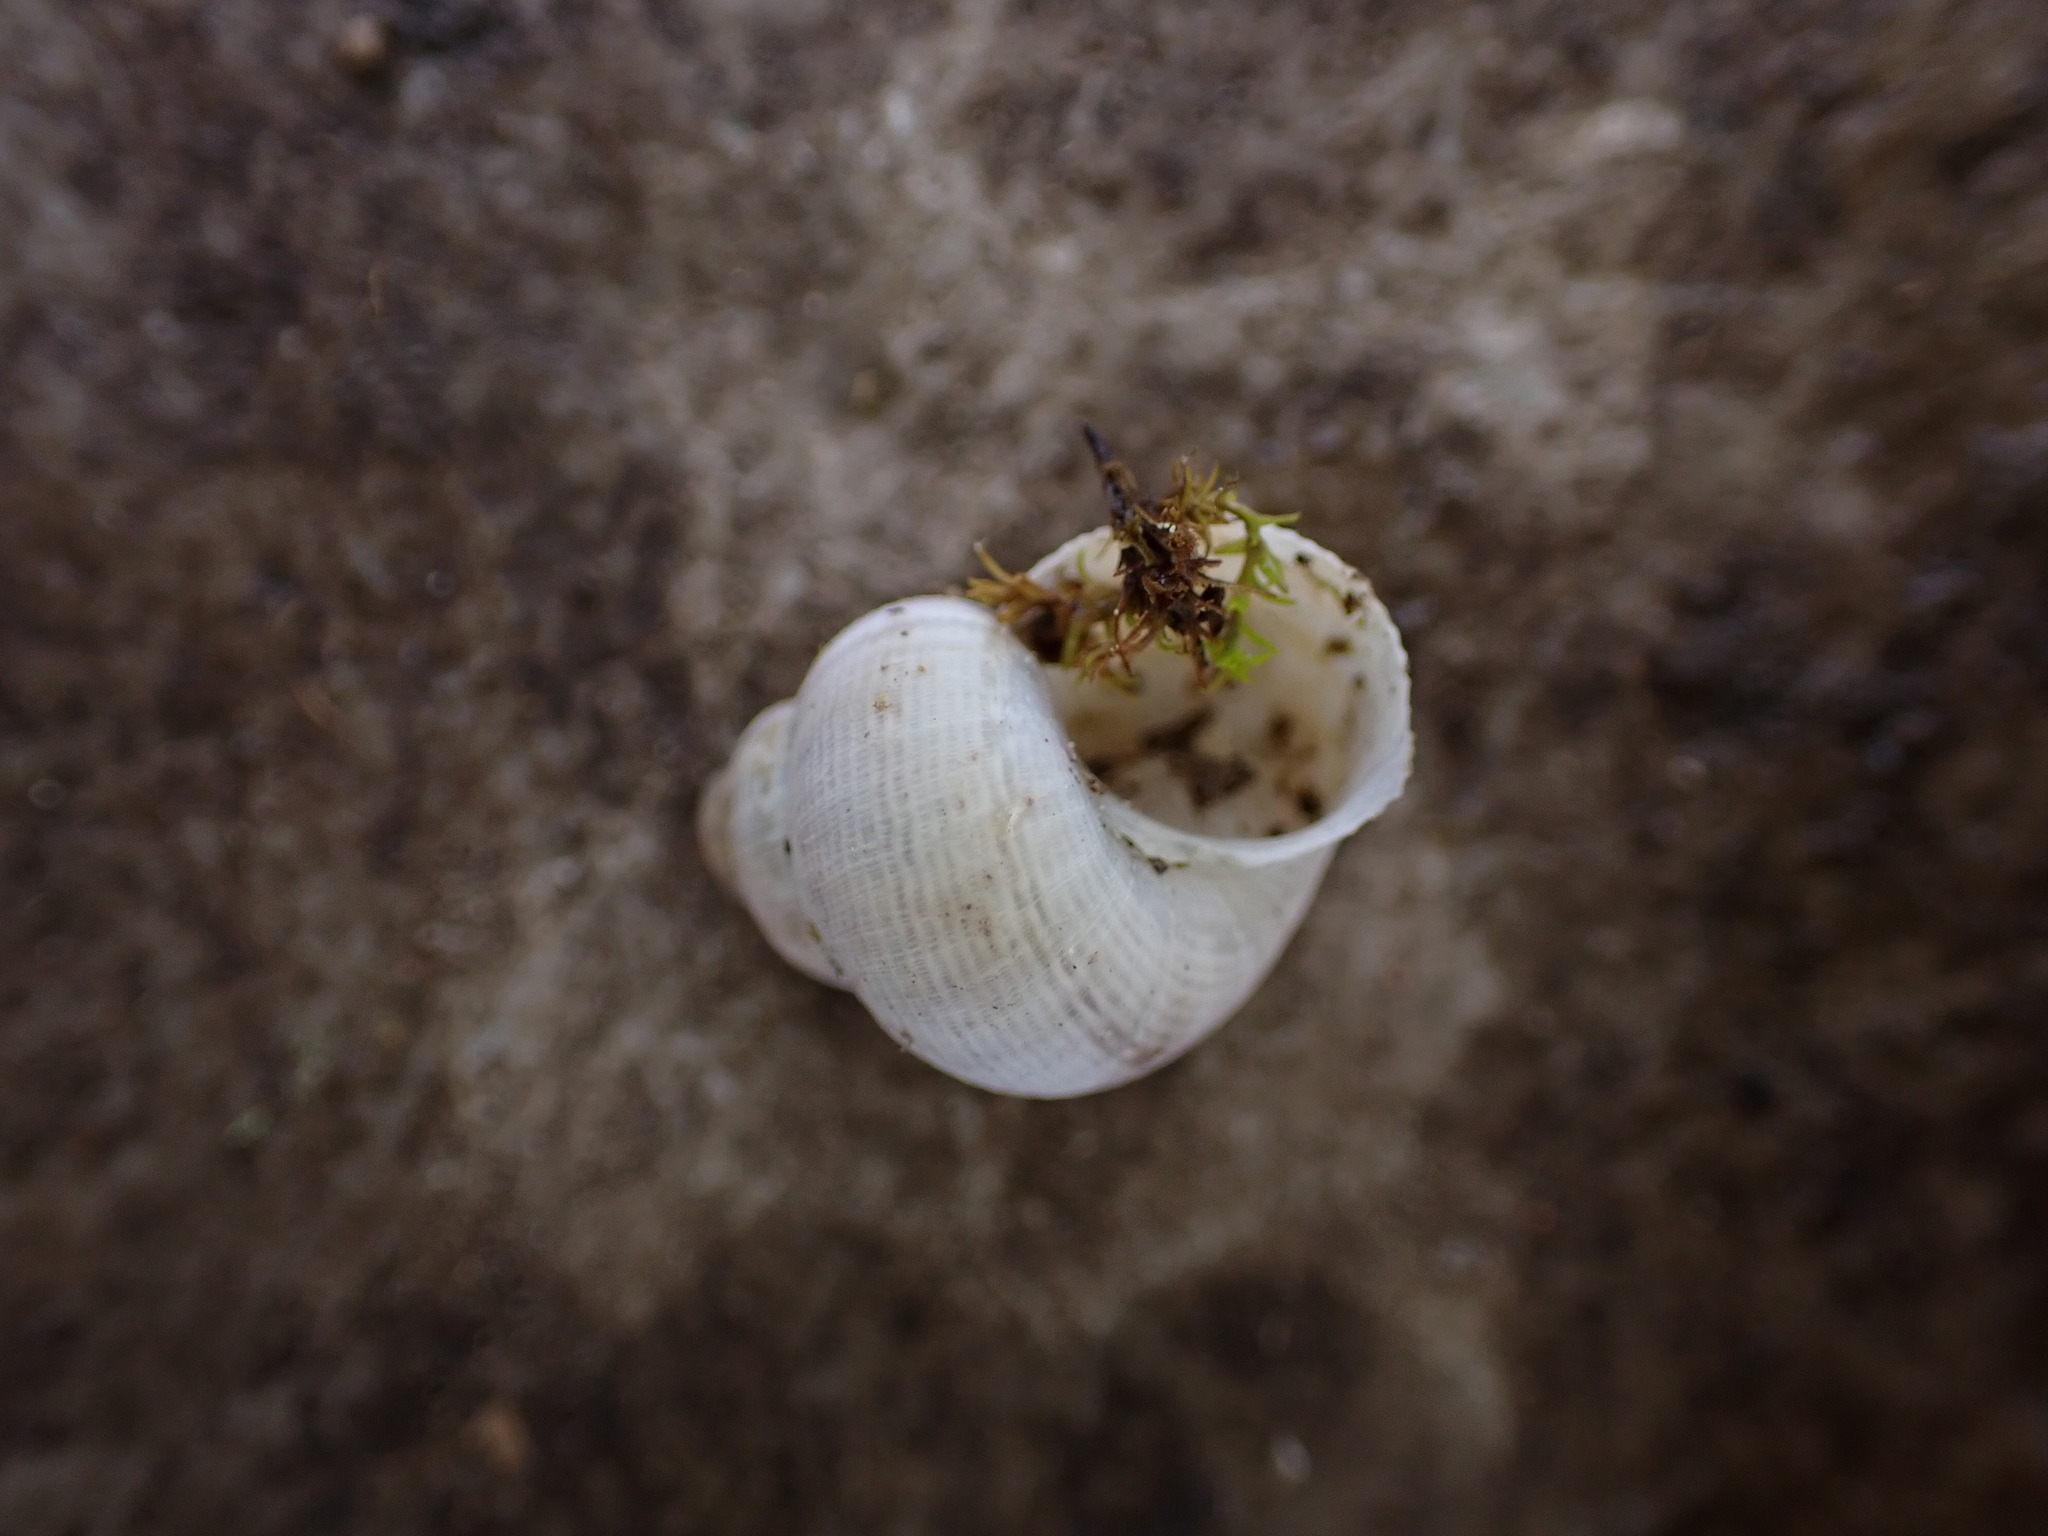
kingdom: Animalia
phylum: Mollusca
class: Gastropoda
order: Littorinimorpha
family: Pomatiidae
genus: Pomatias
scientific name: Pomatias elegans
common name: Red-mouthed snail
